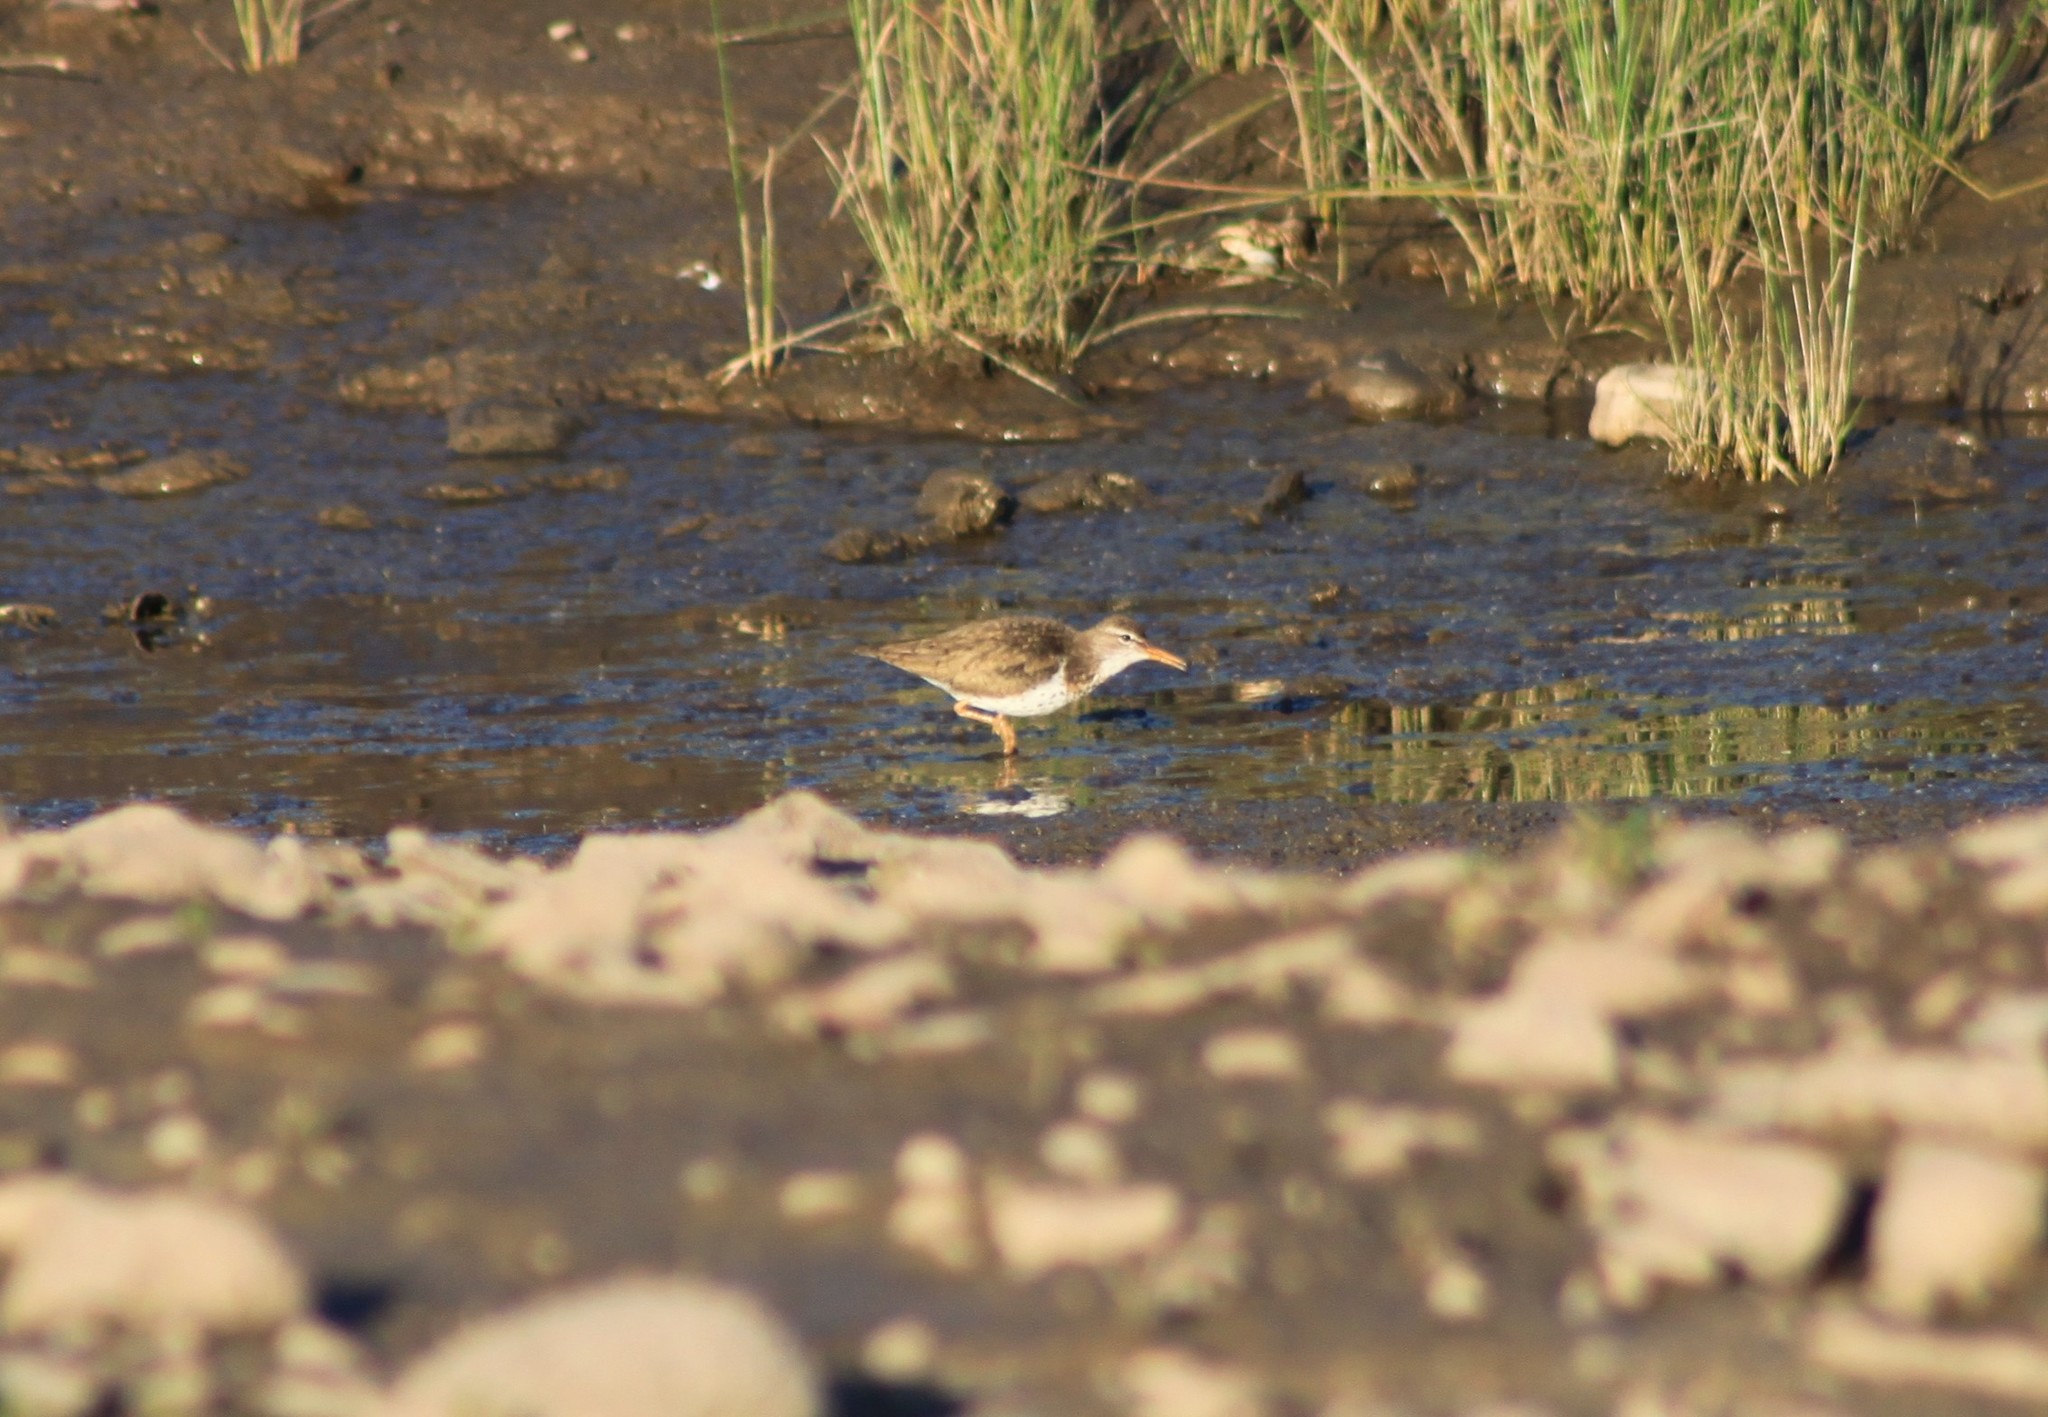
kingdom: Animalia
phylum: Chordata
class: Aves
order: Charadriiformes
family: Scolopacidae
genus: Actitis
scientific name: Actitis macularius
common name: Spotted sandpiper
